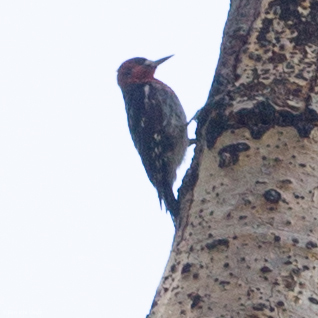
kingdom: Animalia
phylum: Chordata
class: Aves
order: Piciformes
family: Picidae
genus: Sphyrapicus
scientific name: Sphyrapicus ruber
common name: Red-breasted sapsucker
